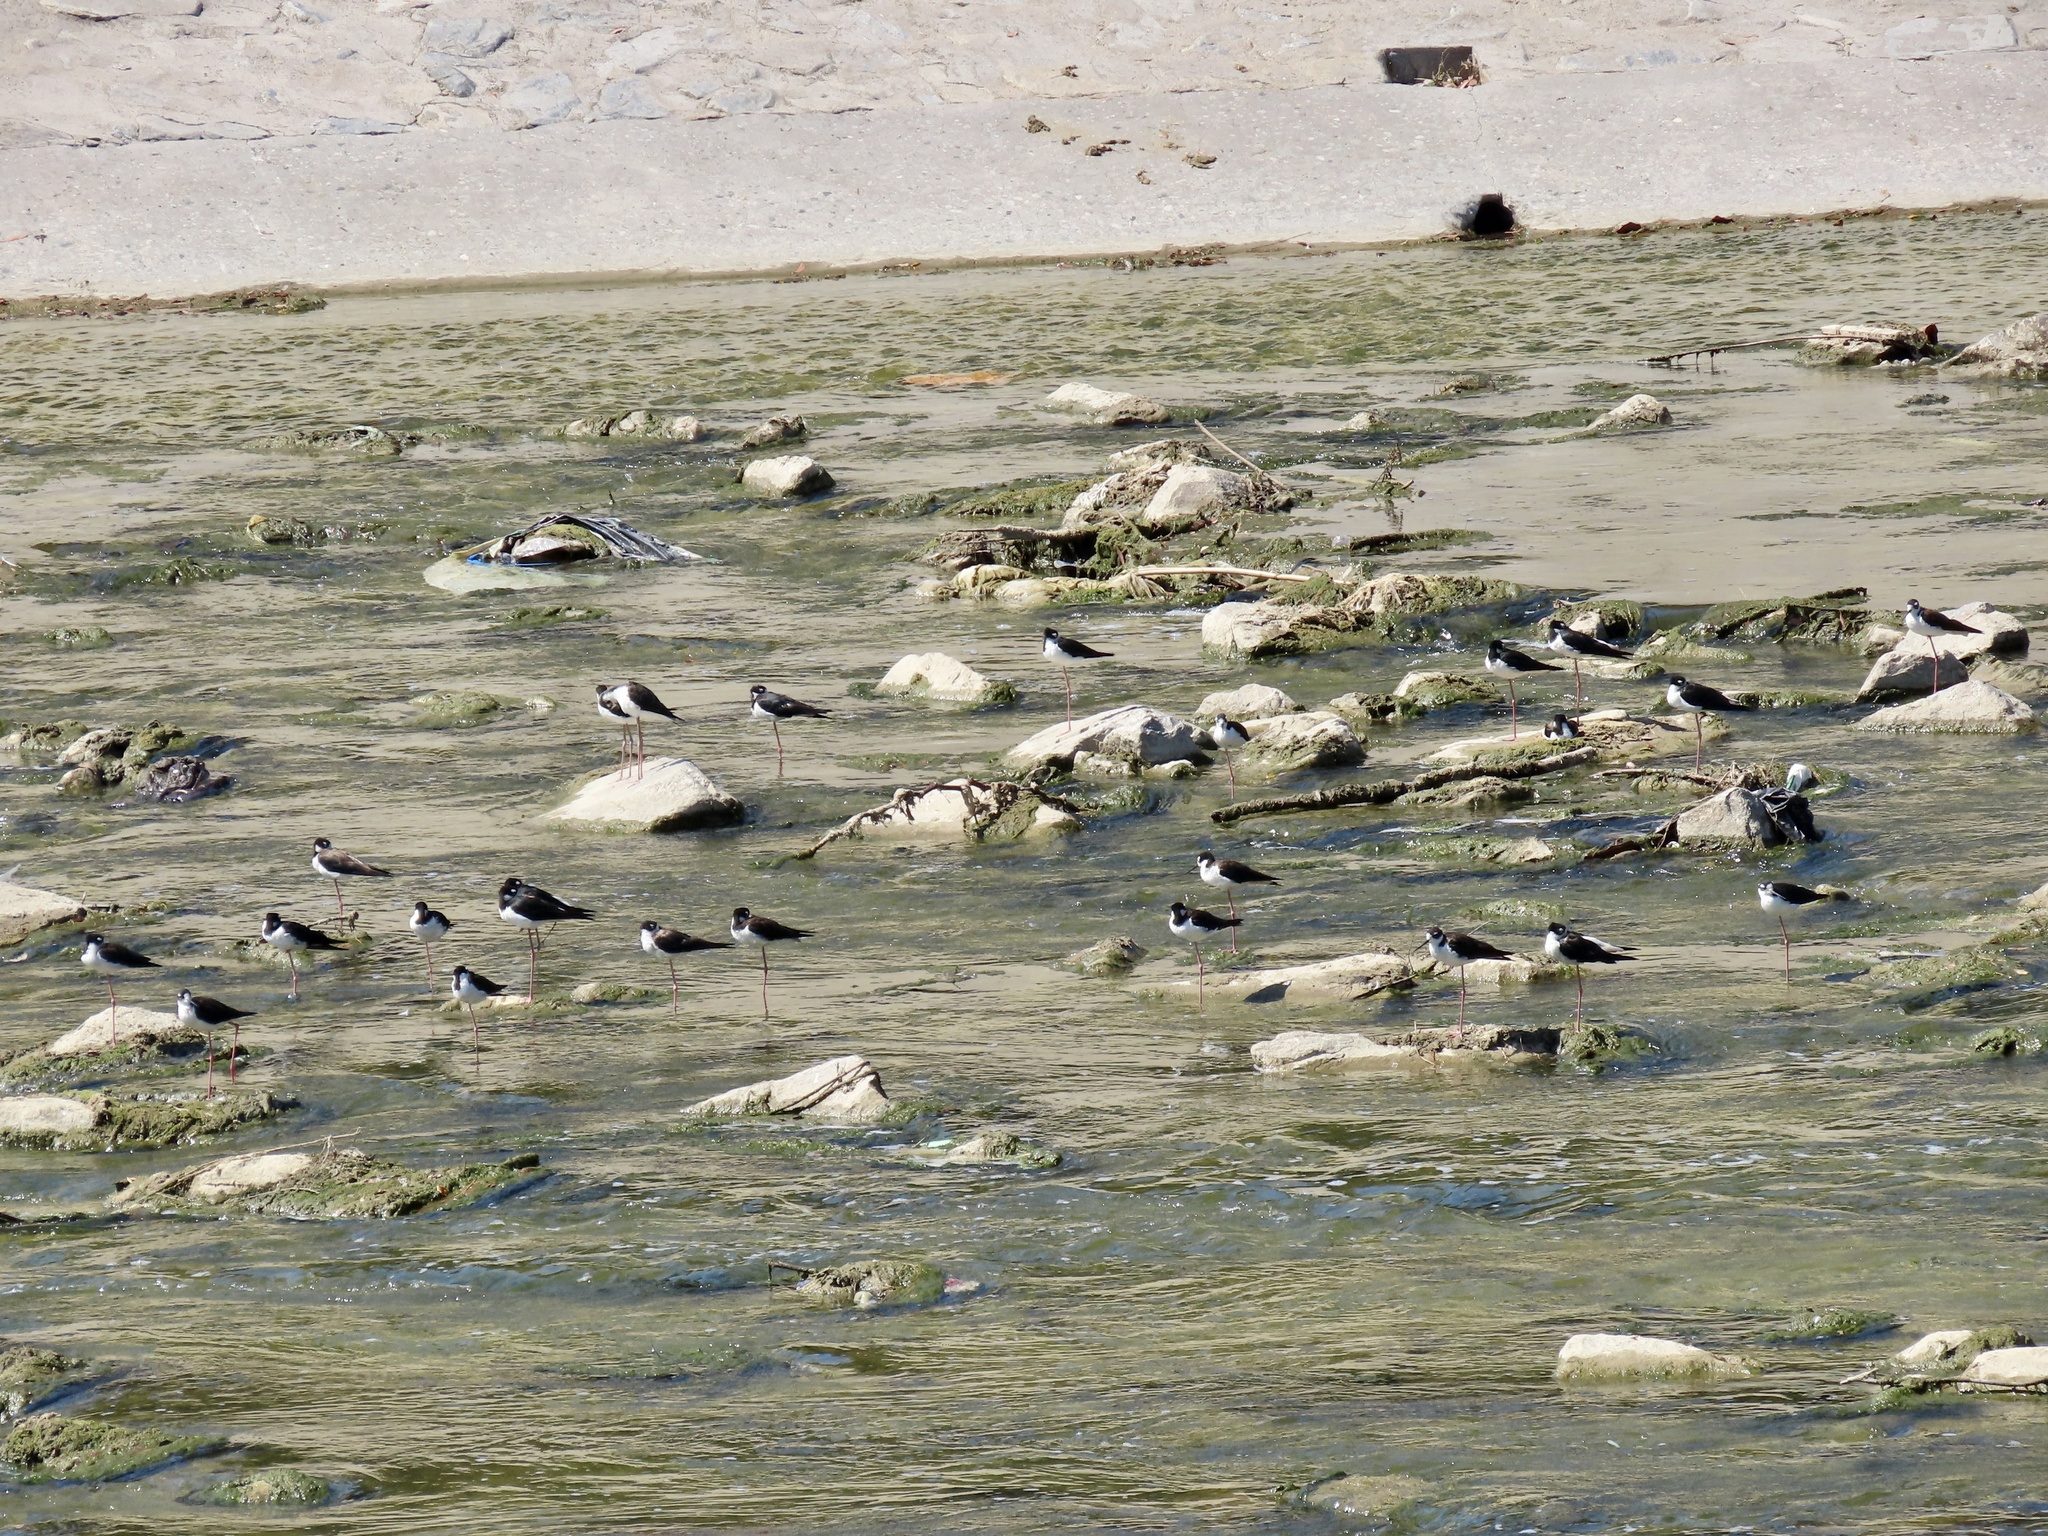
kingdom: Animalia
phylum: Chordata
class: Aves
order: Charadriiformes
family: Recurvirostridae
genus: Himantopus
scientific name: Himantopus mexicanus
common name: Black-necked stilt
